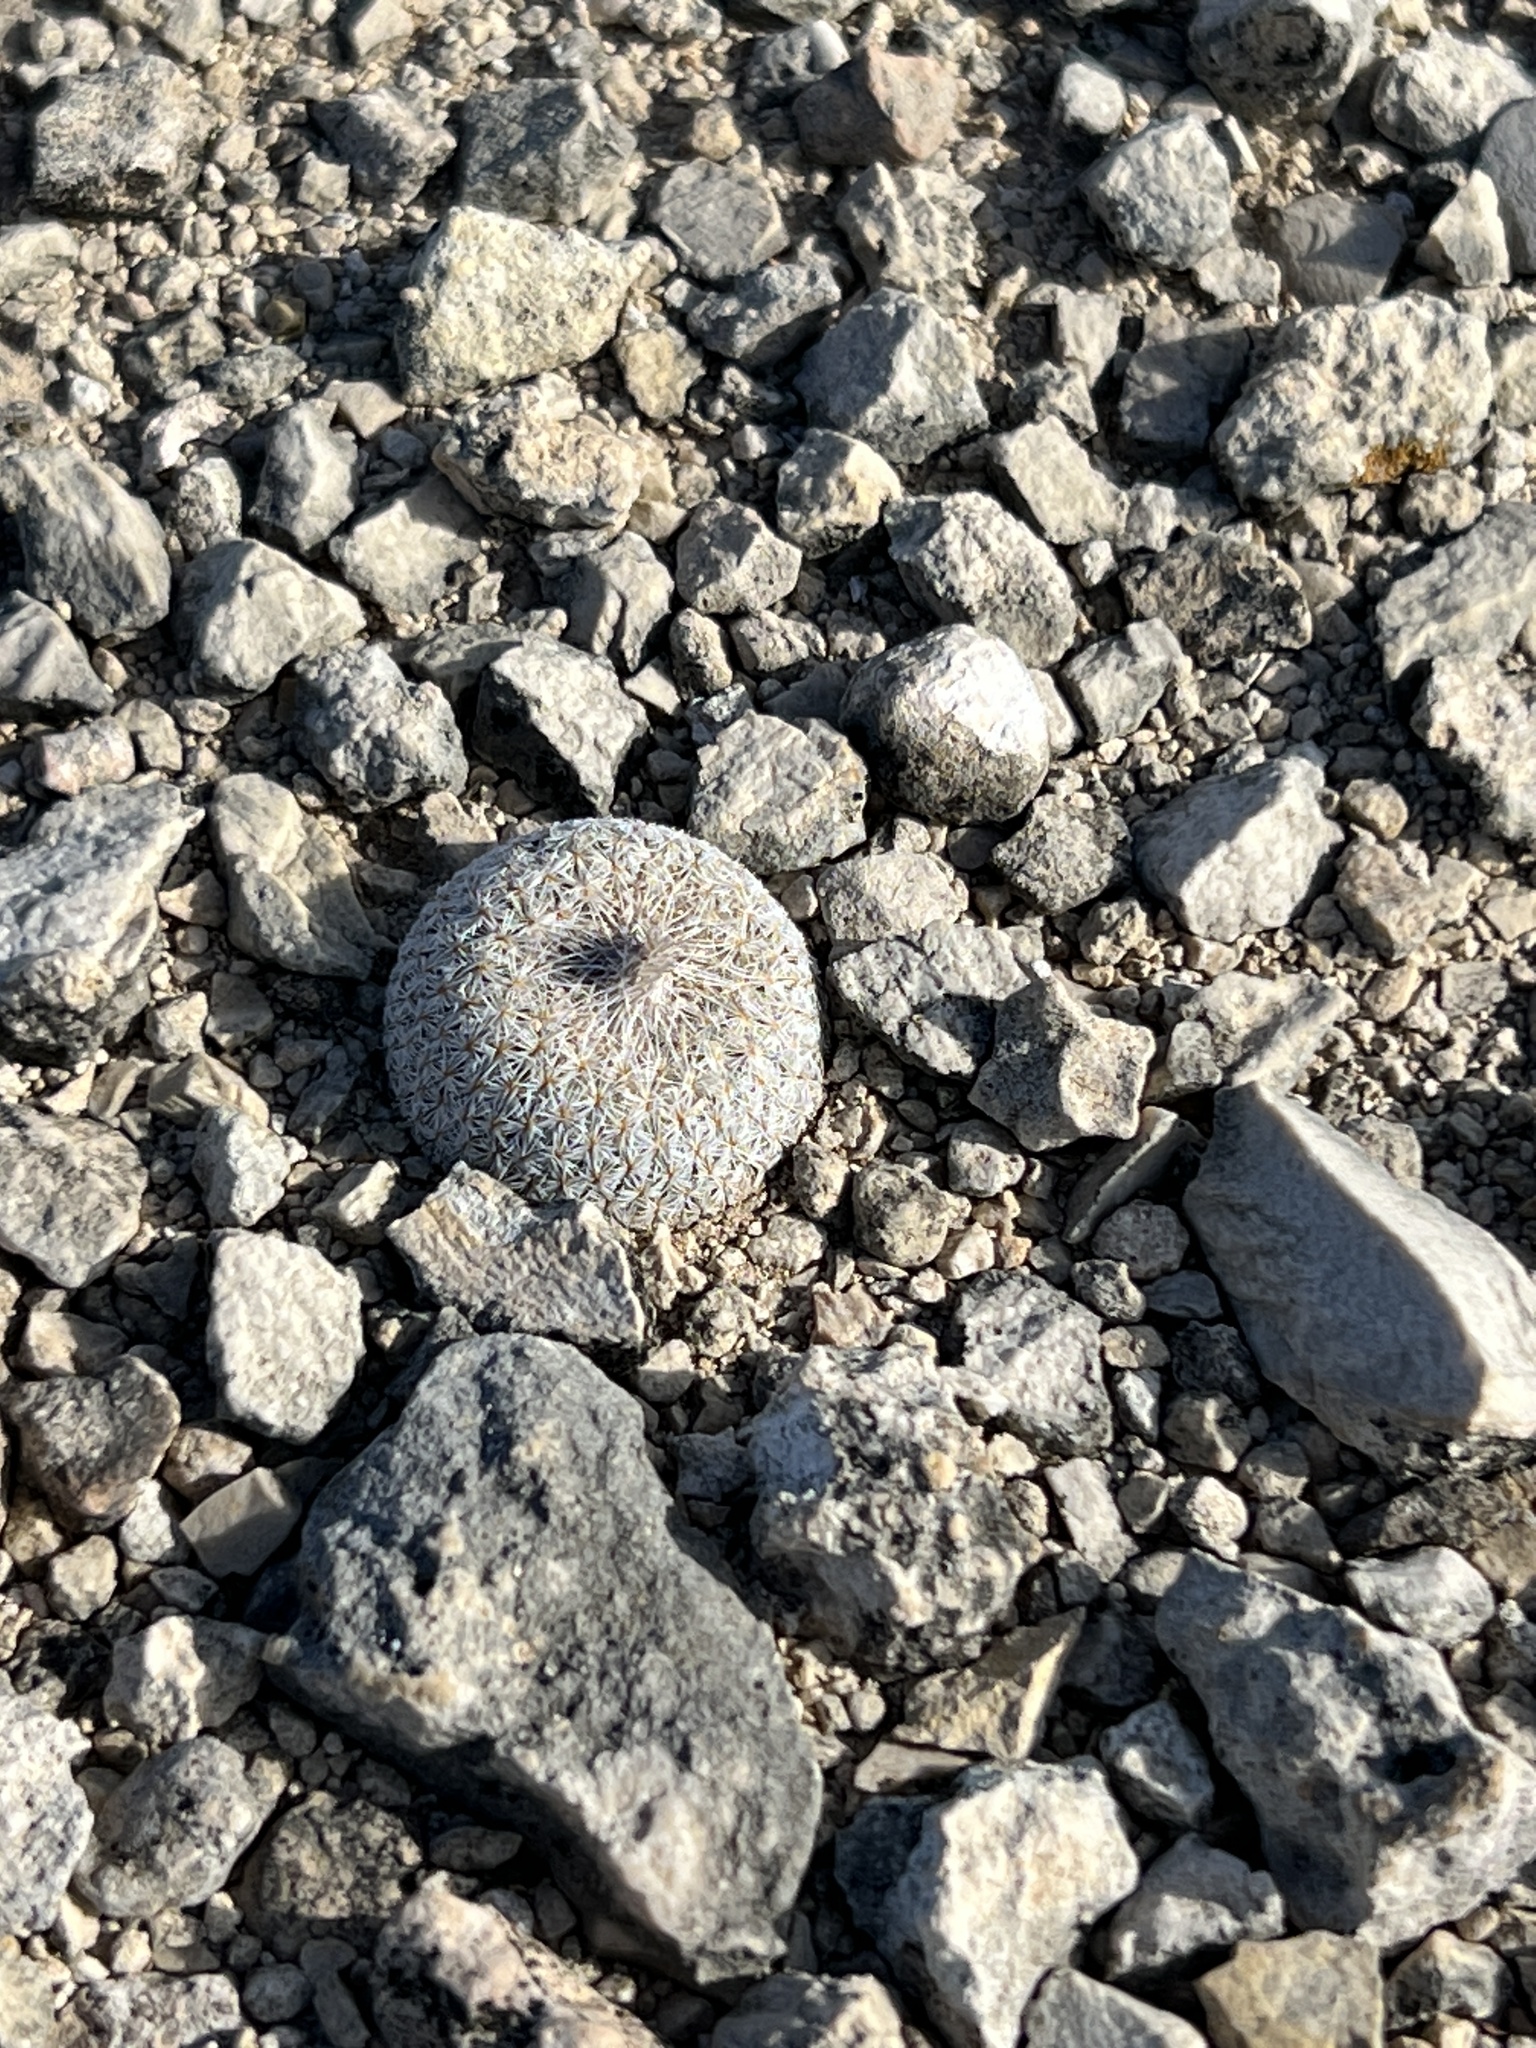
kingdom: Plantae
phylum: Tracheophyta
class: Magnoliopsida
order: Caryophyllales
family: Cactaceae
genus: Epithelantha
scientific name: Epithelantha micromeris
